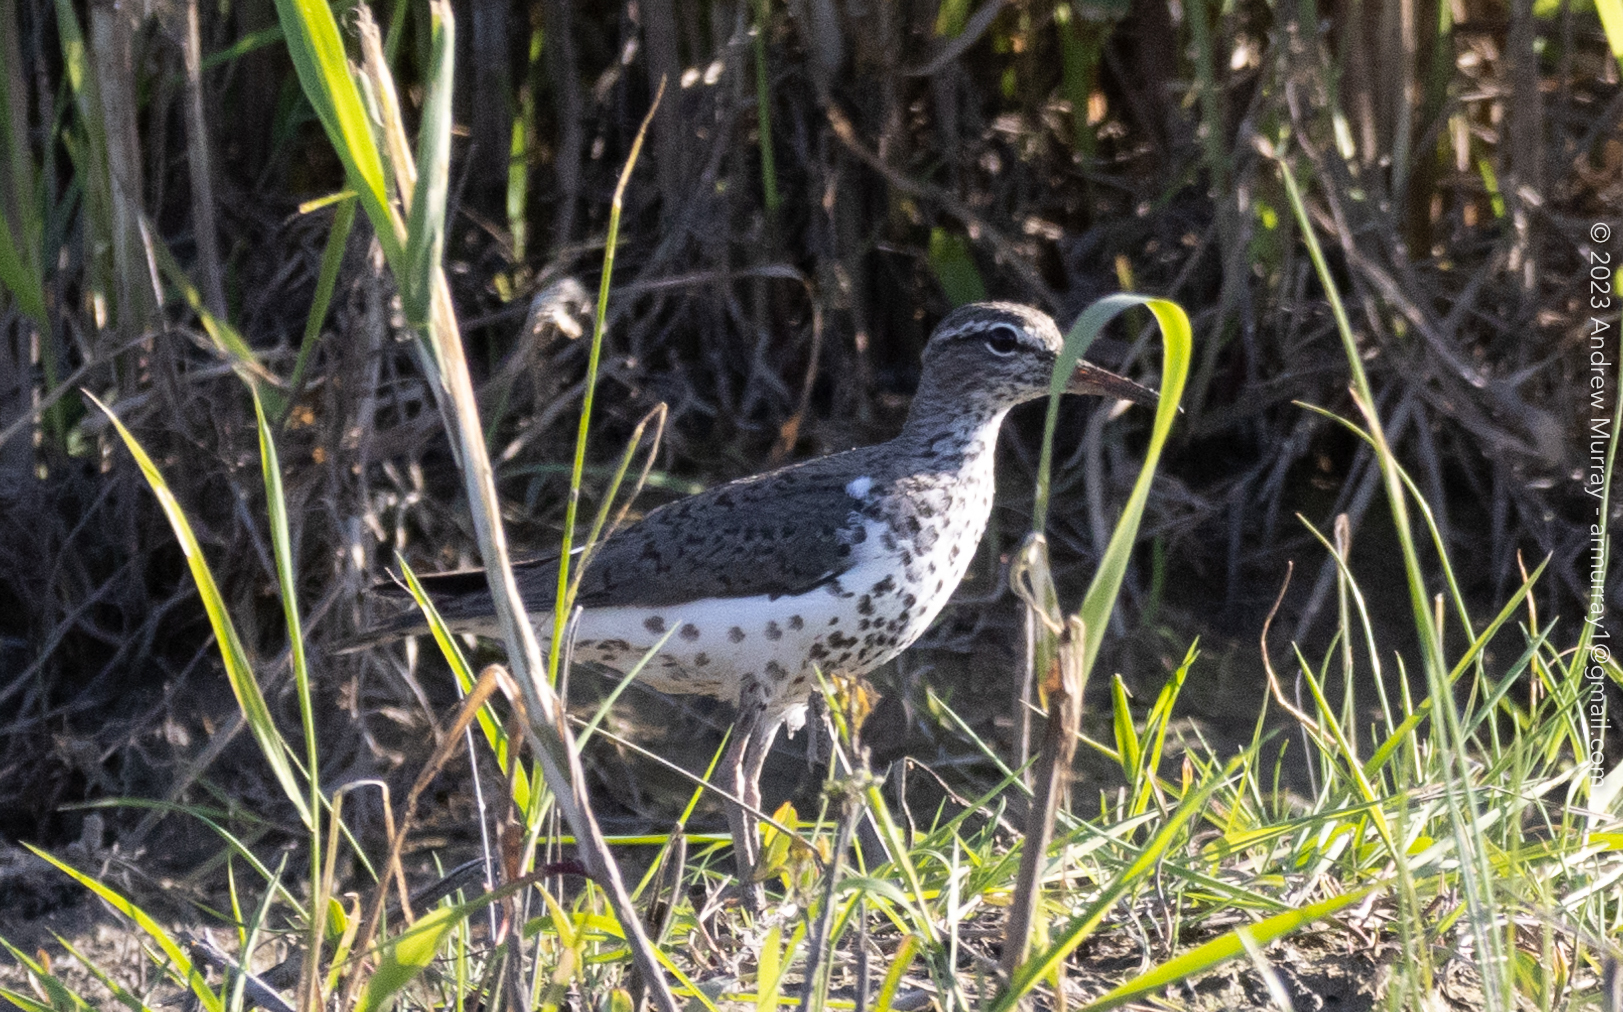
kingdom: Animalia
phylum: Chordata
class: Aves
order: Charadriiformes
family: Scolopacidae
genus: Actitis
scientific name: Actitis macularius
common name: Spotted sandpiper
